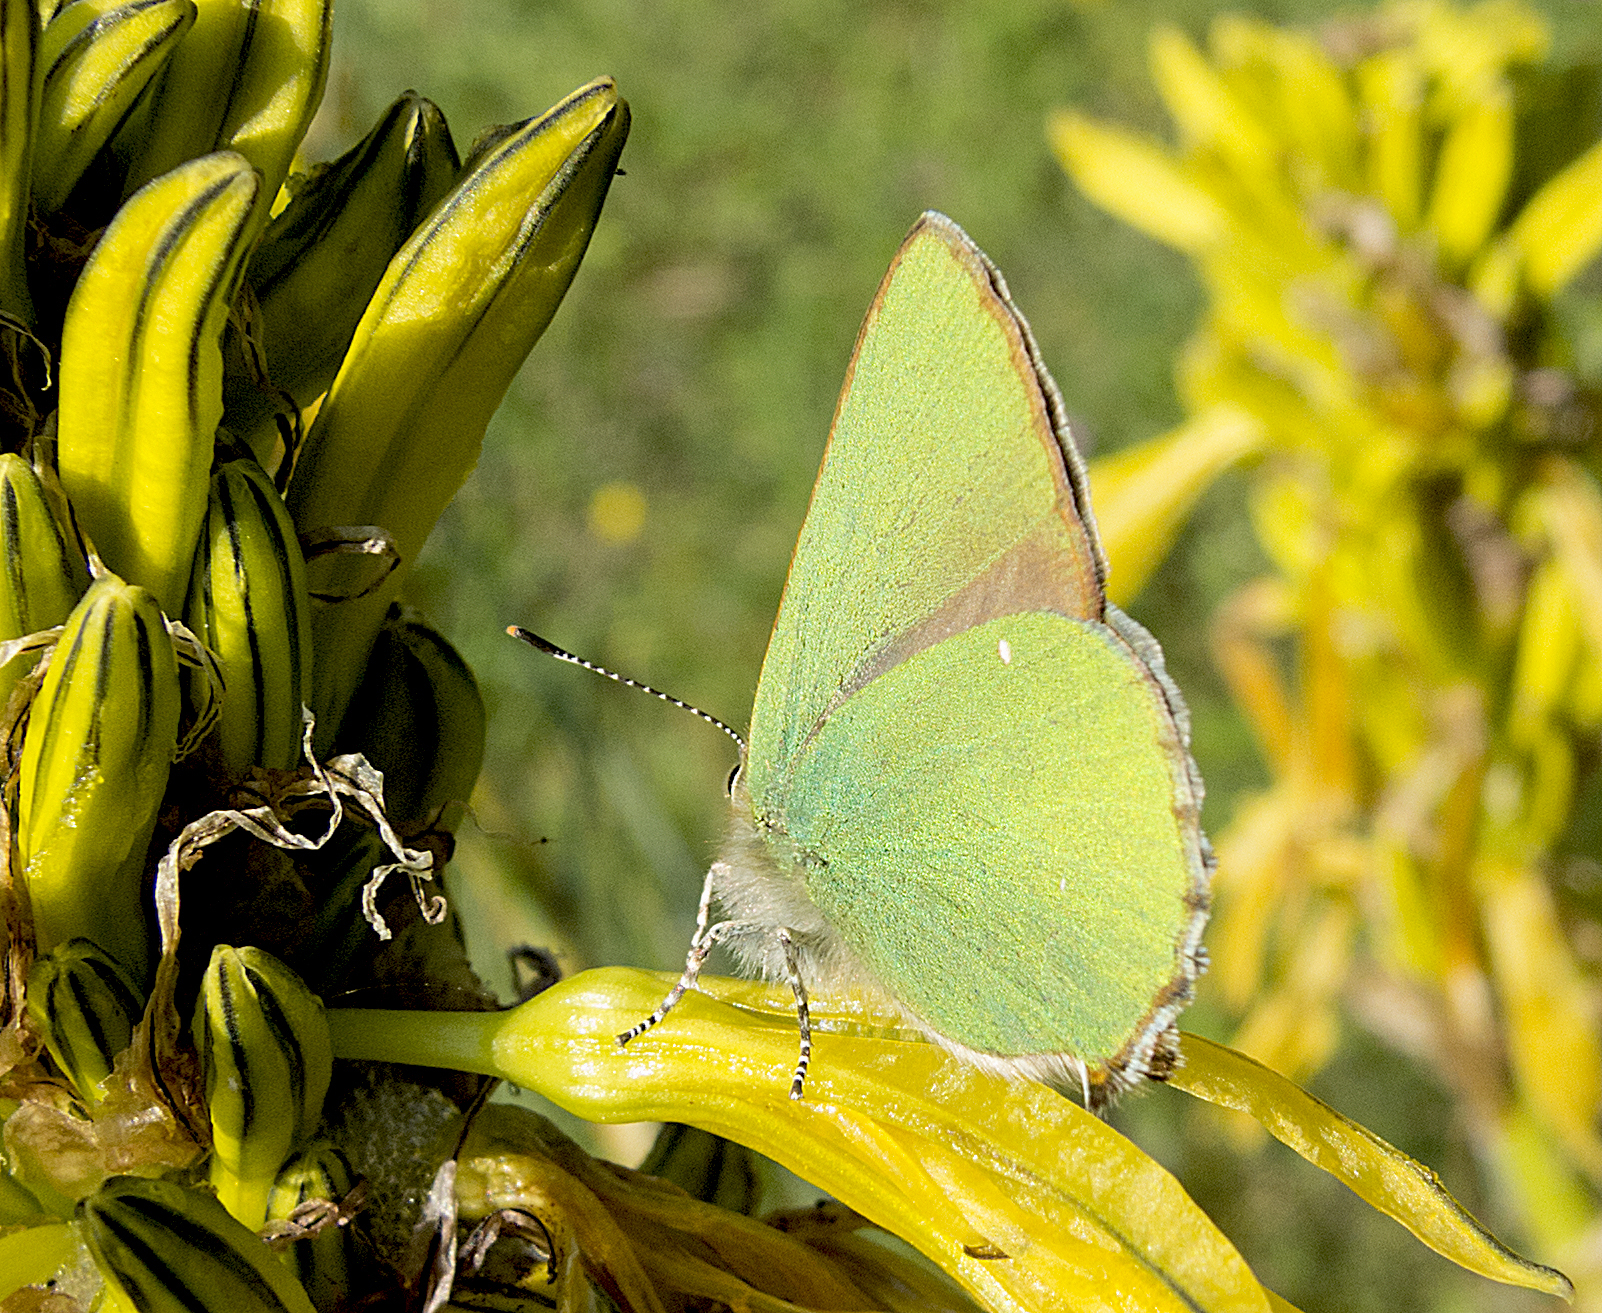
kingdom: Animalia
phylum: Arthropoda
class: Insecta
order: Lepidoptera
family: Lycaenidae
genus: Callophrys
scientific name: Callophrys rubi
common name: Green hairstreak
